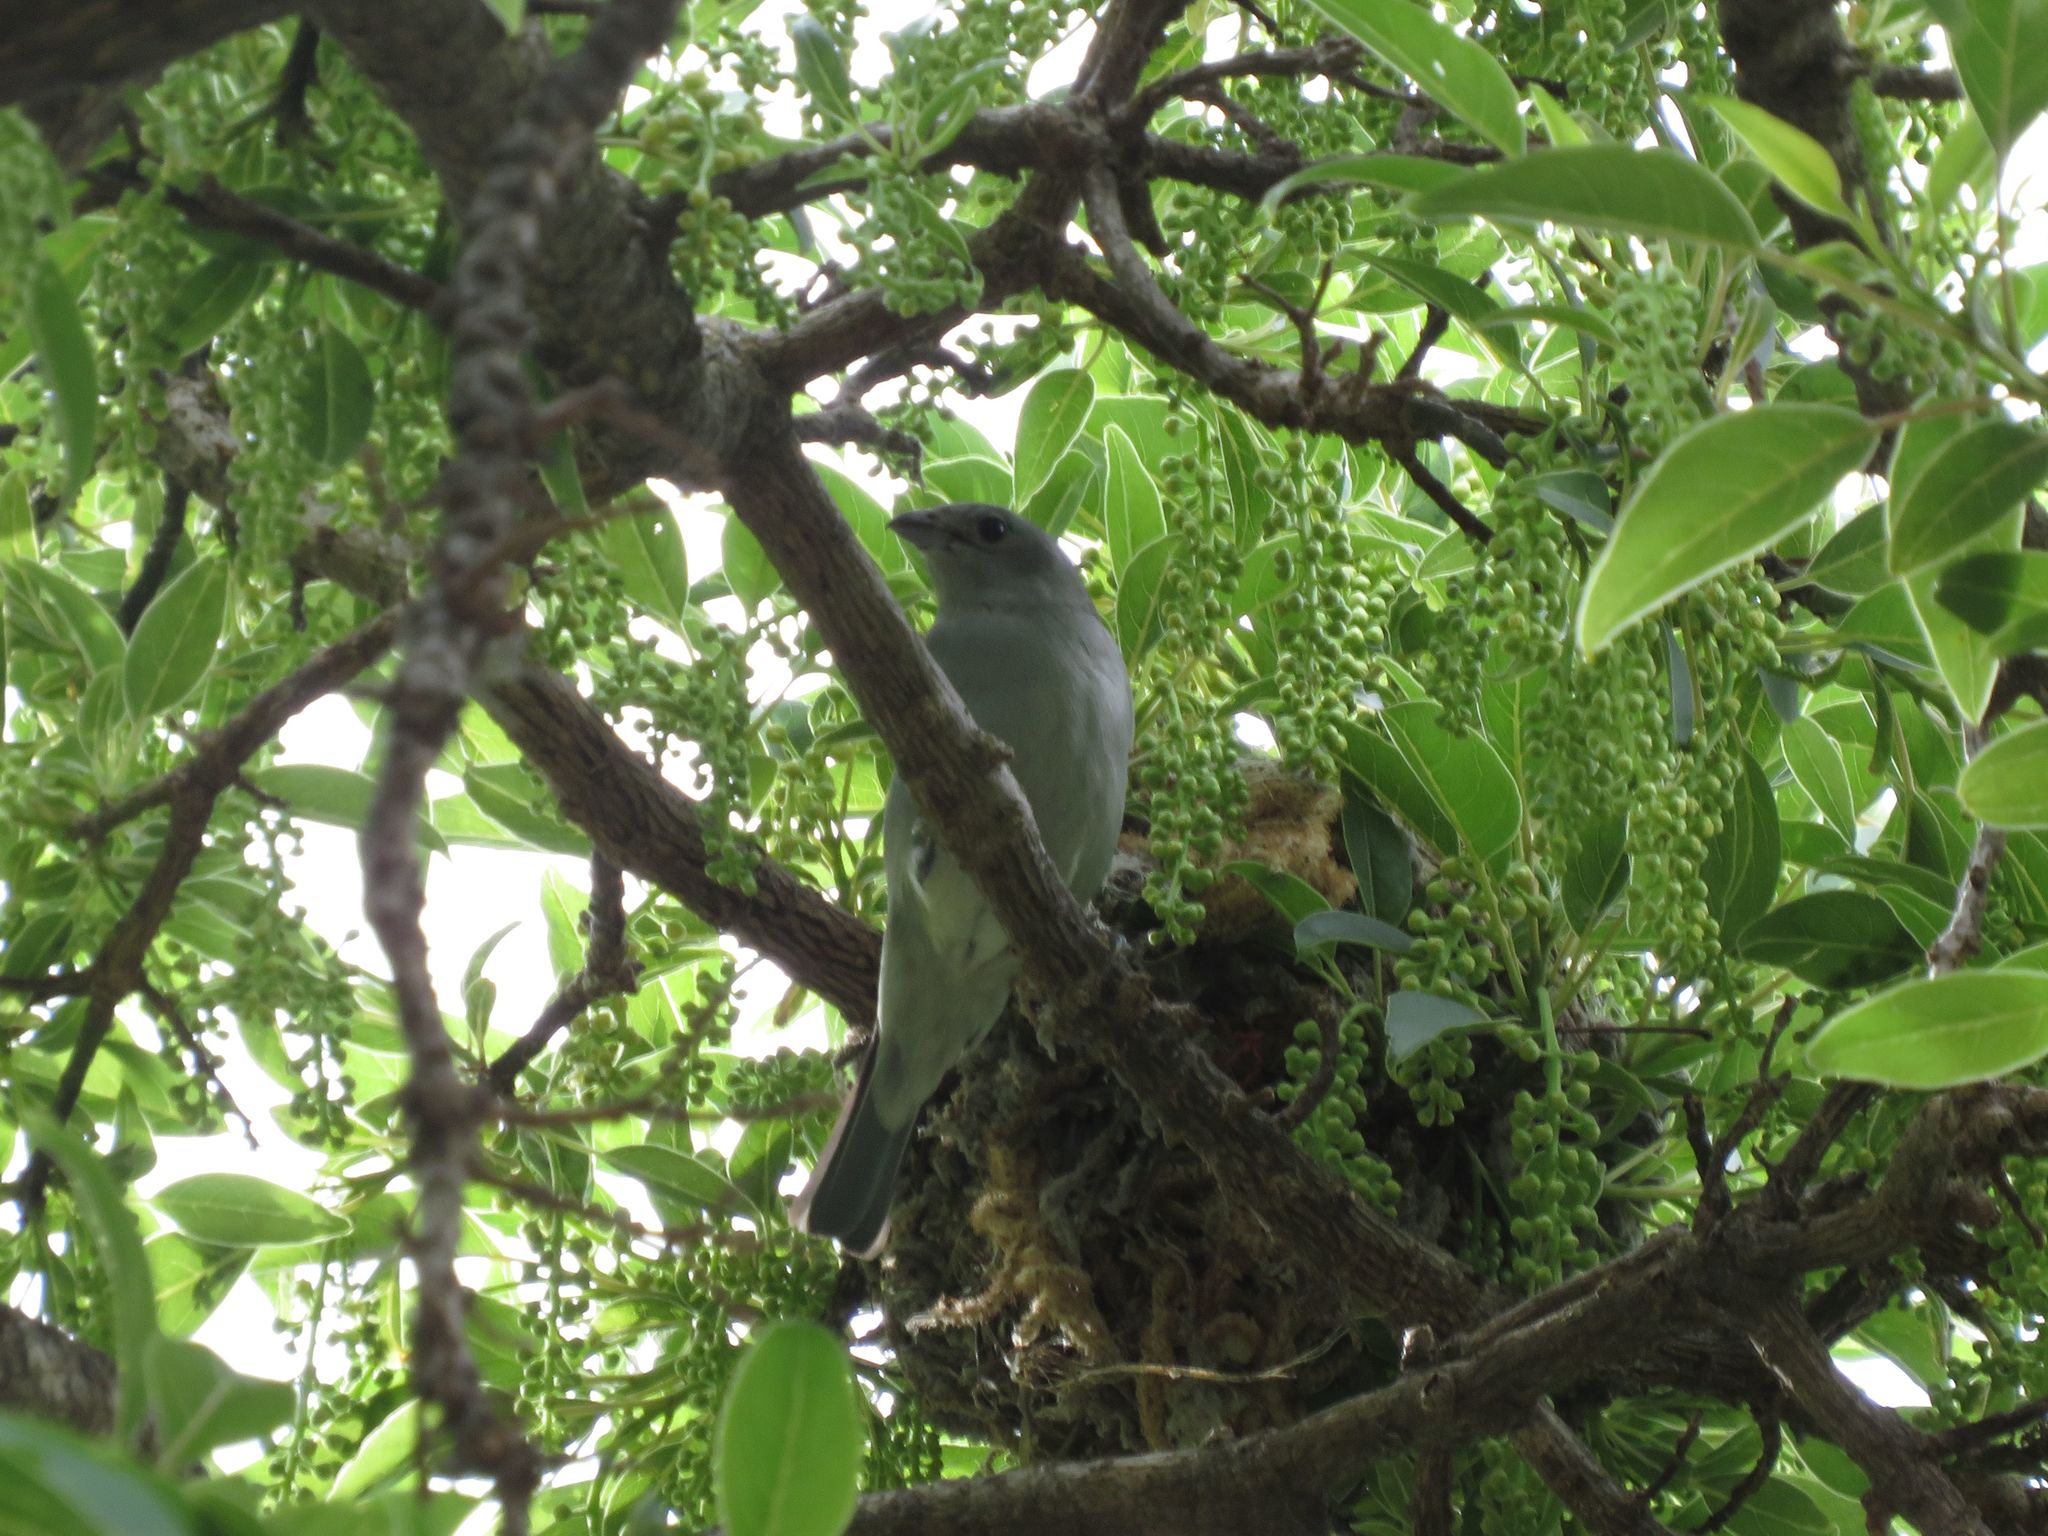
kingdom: Animalia
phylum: Chordata
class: Aves
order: Passeriformes
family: Thraupidae
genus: Thraupis
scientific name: Thraupis sayaca
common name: Sayaca tanager
